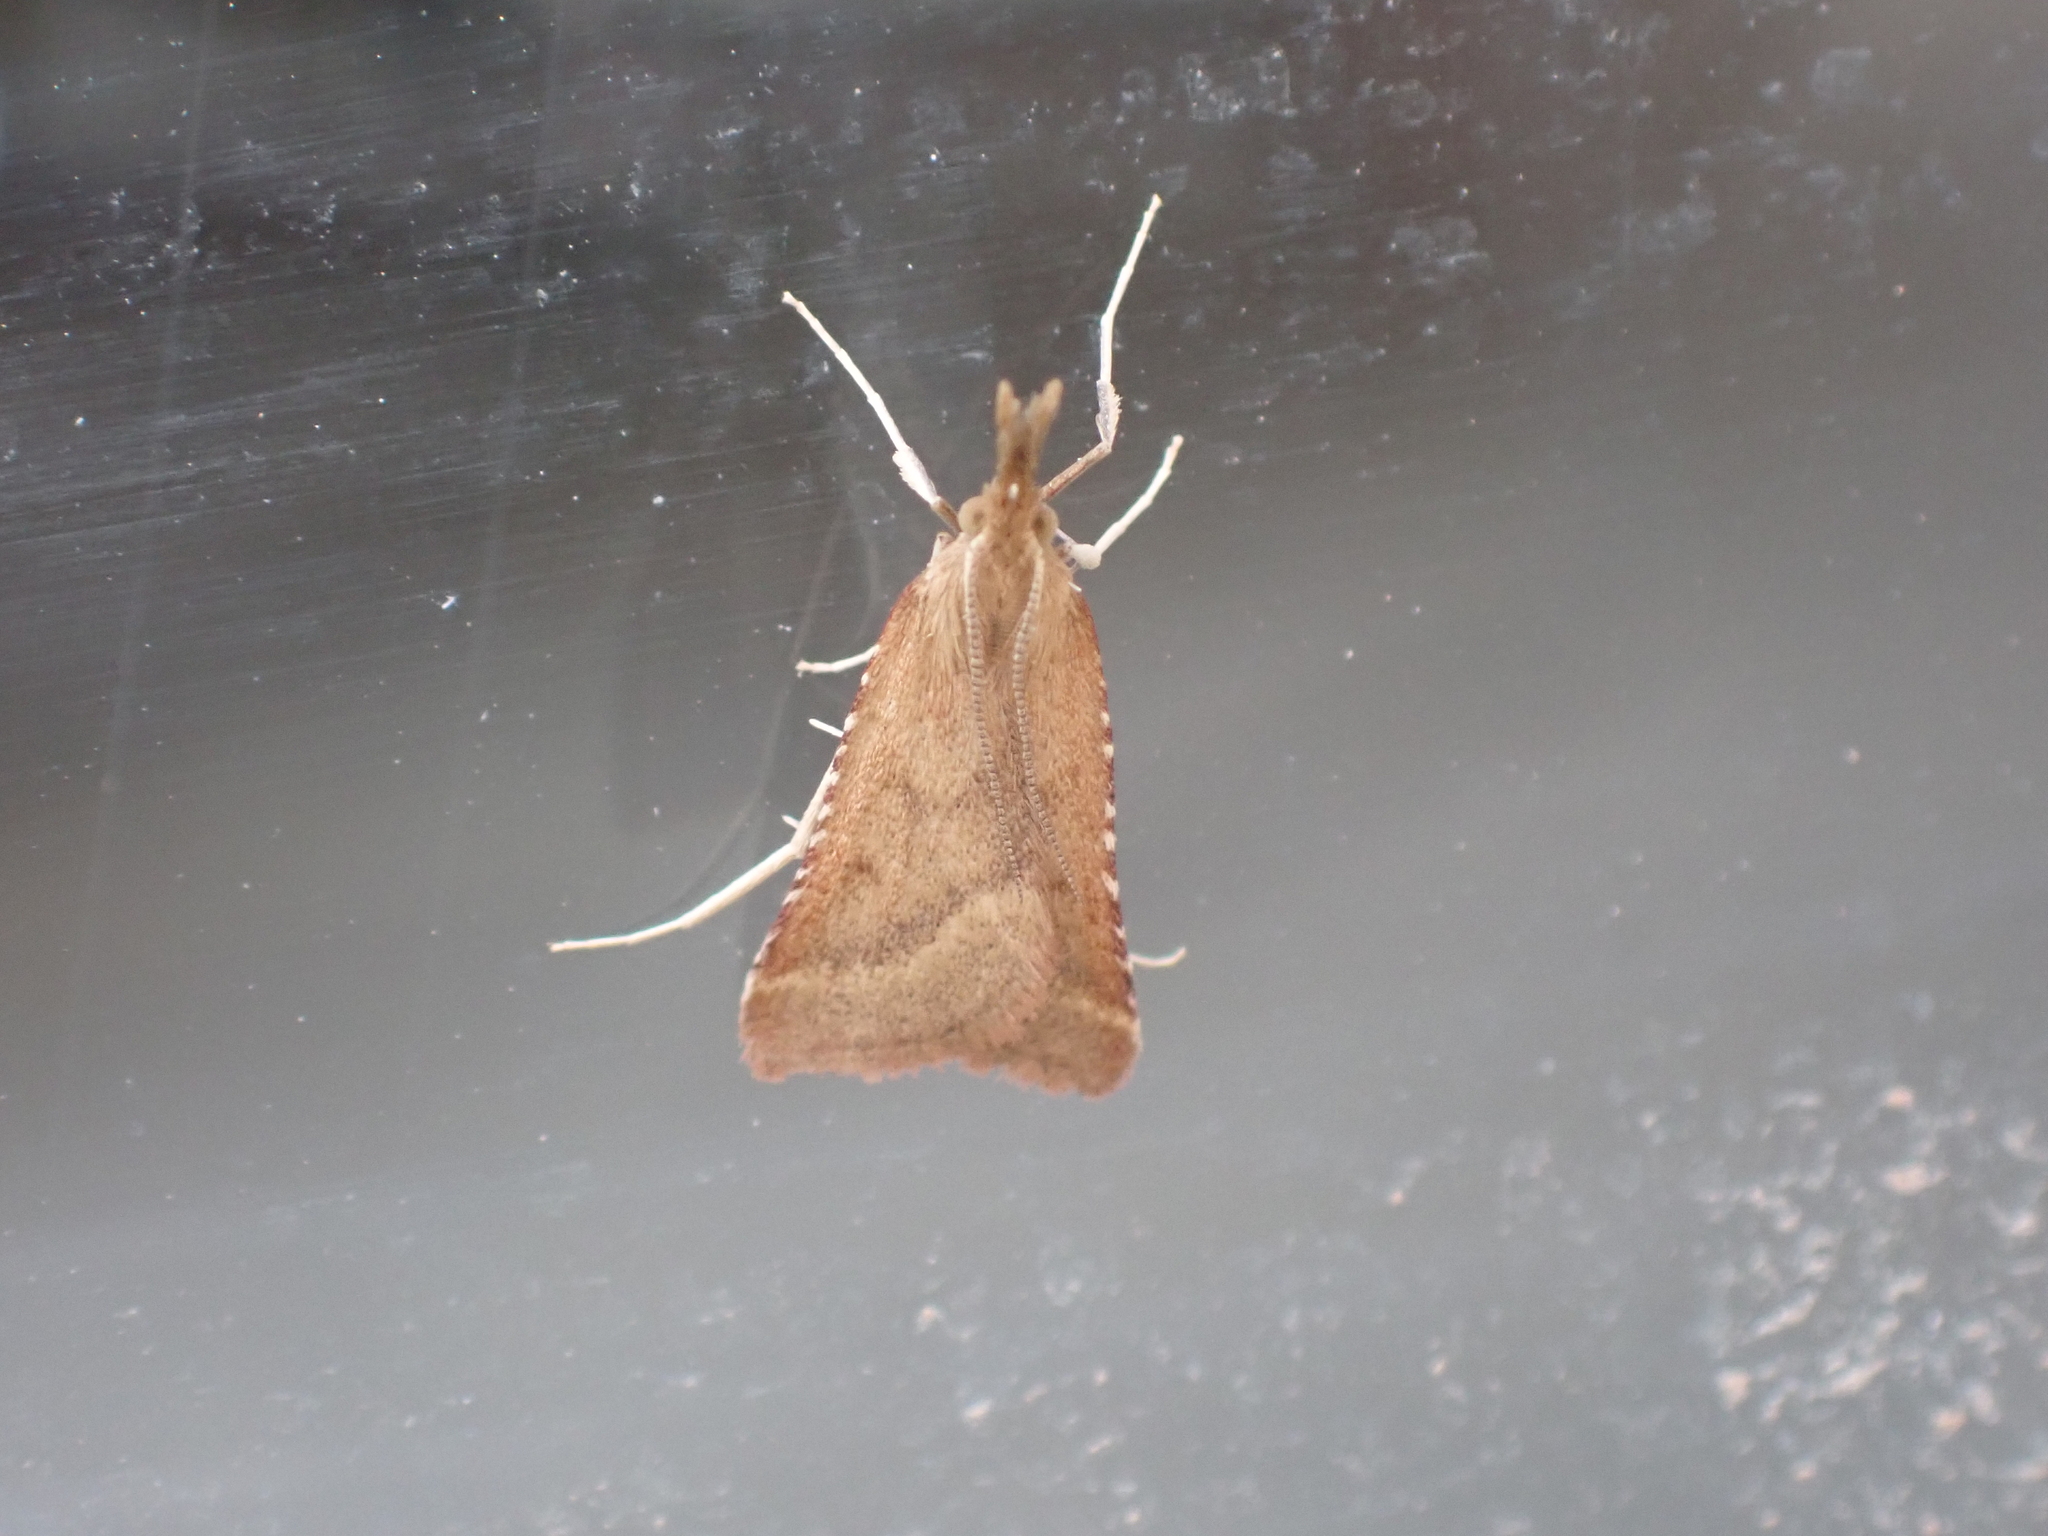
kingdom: Animalia
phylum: Arthropoda
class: Insecta
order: Lepidoptera
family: Pyralidae
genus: Synaphe
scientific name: Synaphe punctalis
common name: Long-legged tabby
